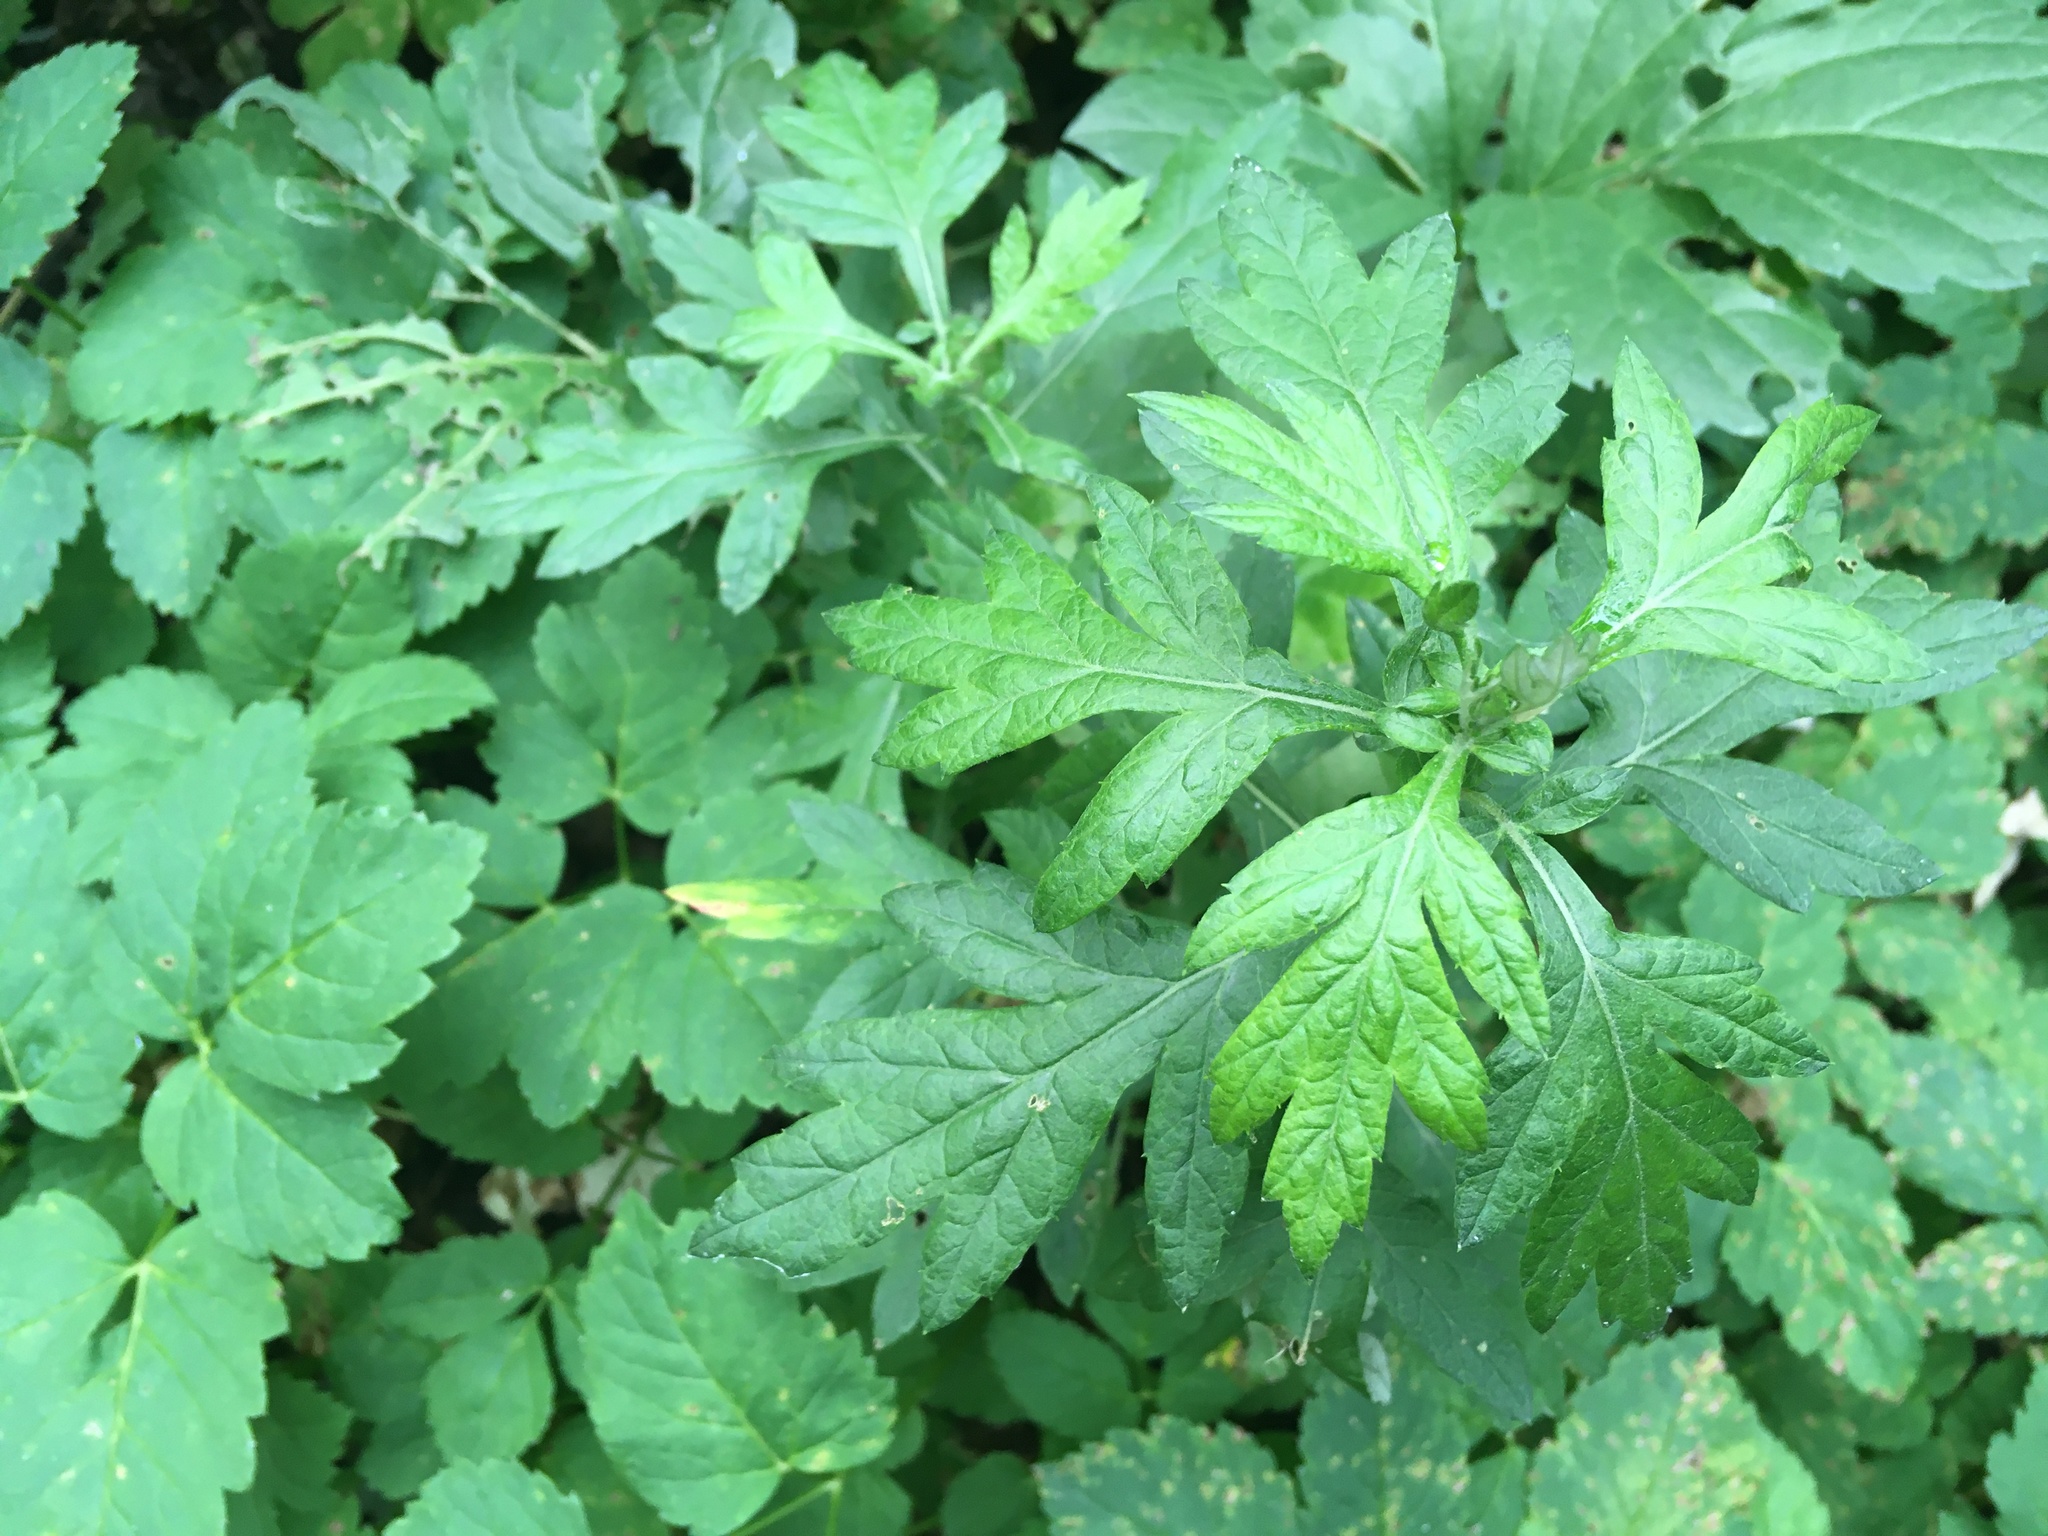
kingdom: Plantae
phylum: Tracheophyta
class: Magnoliopsida
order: Asterales
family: Asteraceae
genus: Artemisia
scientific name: Artemisia vulgaris
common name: Mugwort
